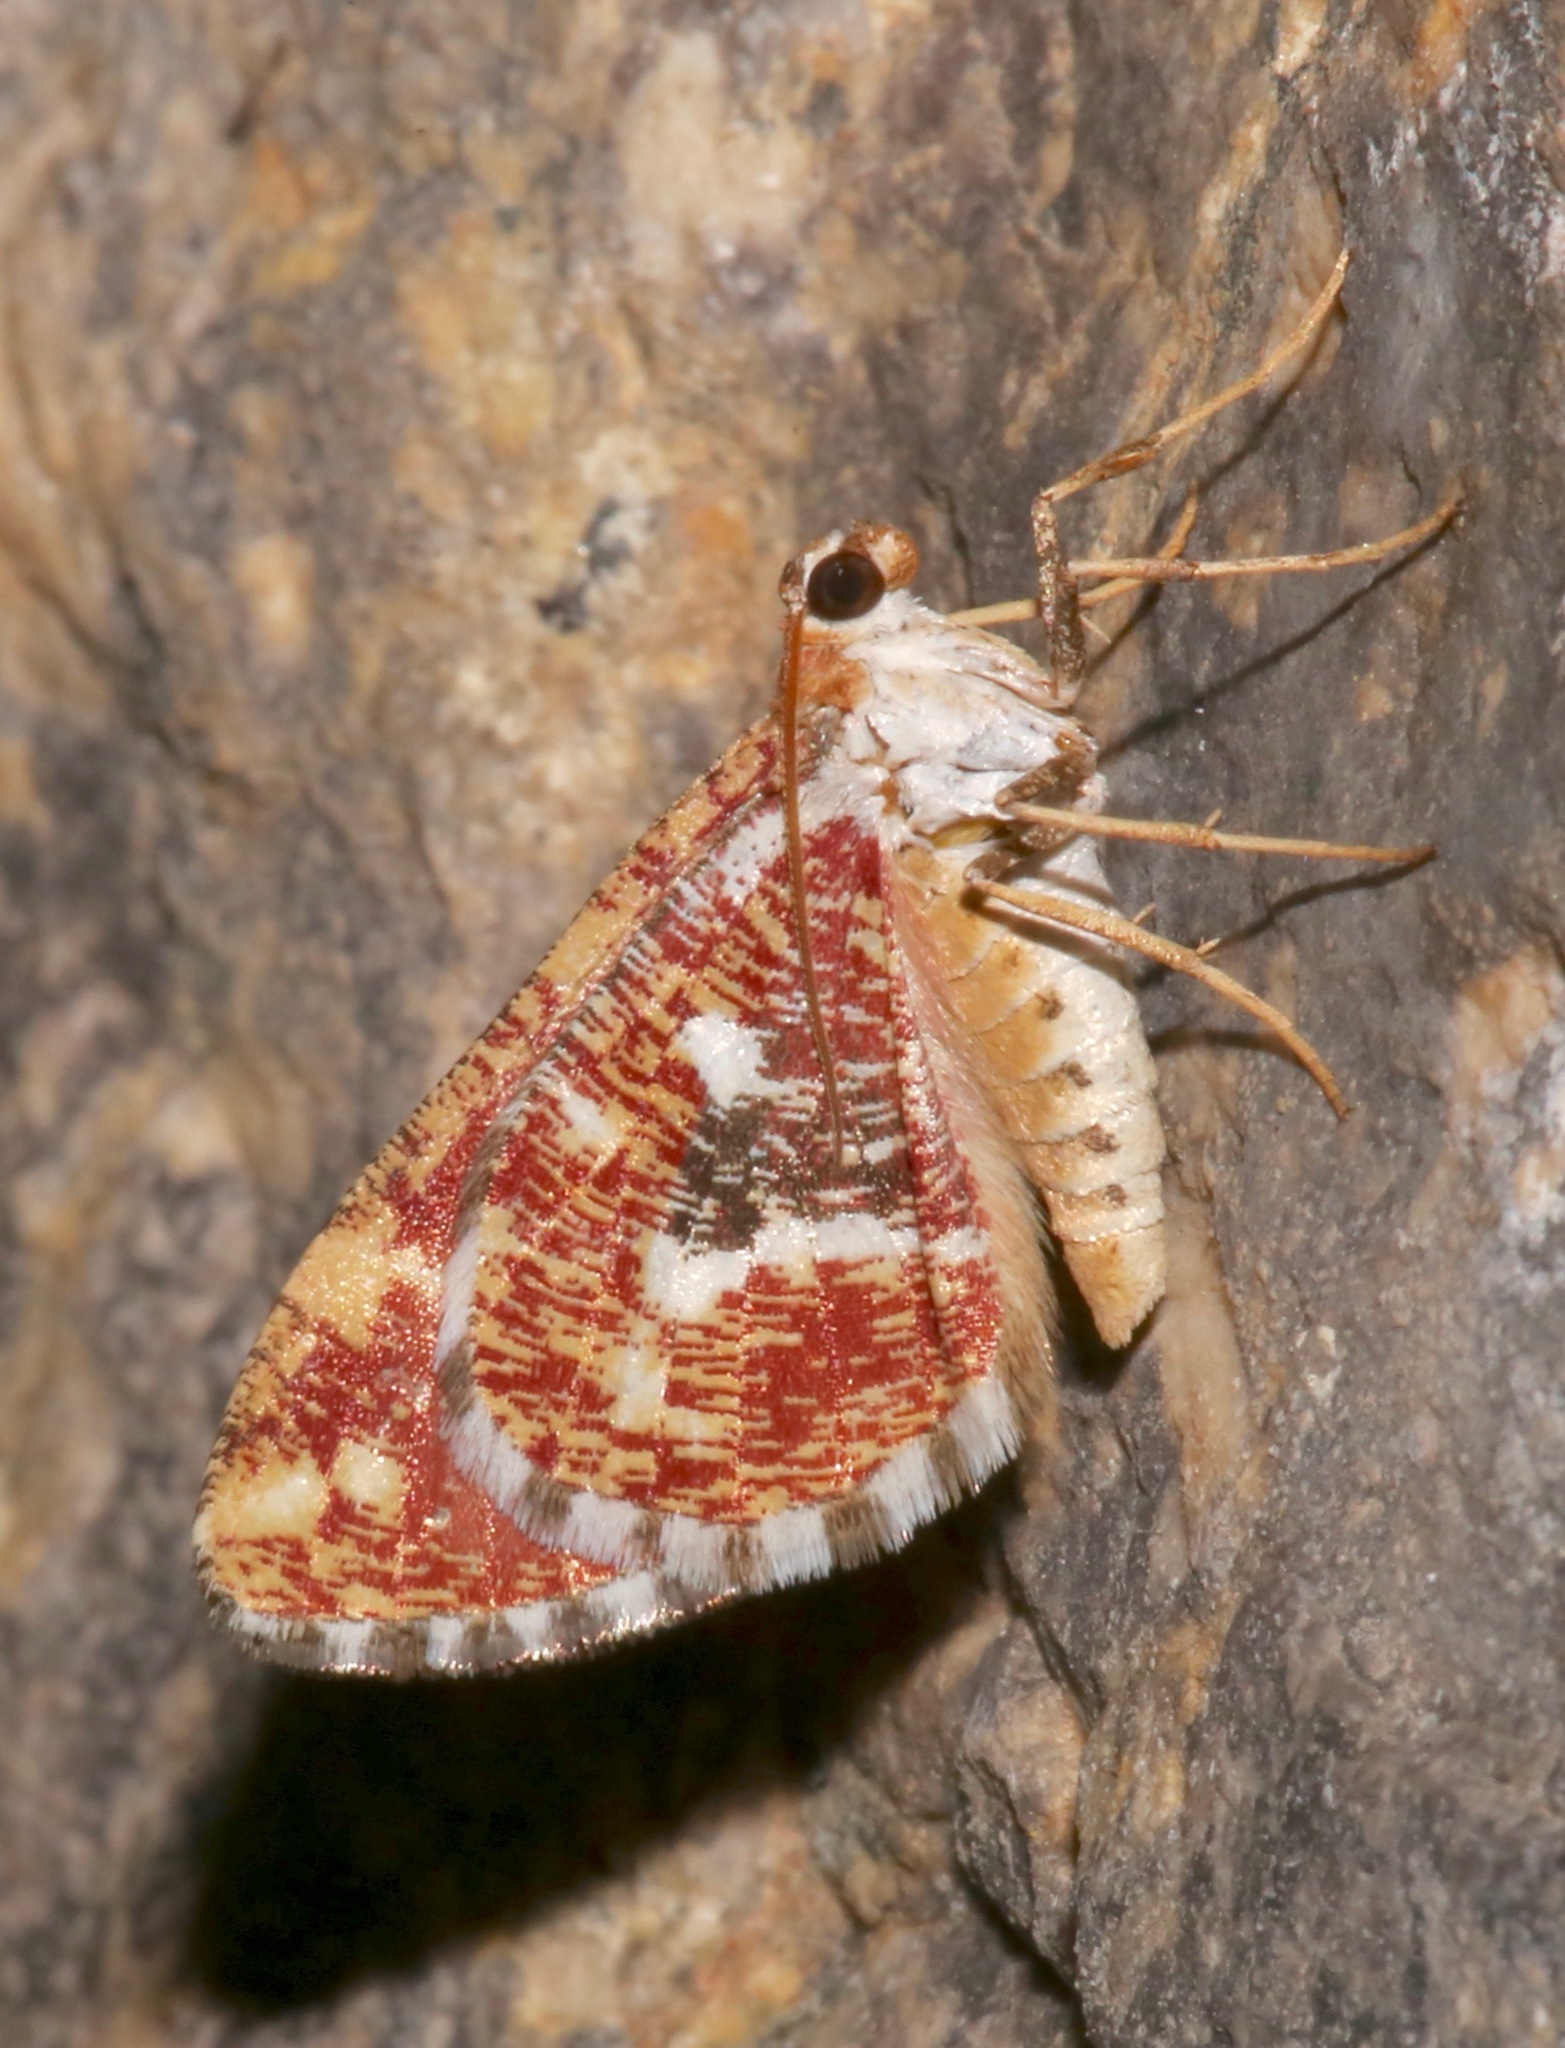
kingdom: Animalia
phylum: Arthropoda
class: Insecta
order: Lepidoptera
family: Geometridae
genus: Stamnodes
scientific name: Stamnodes formosata
